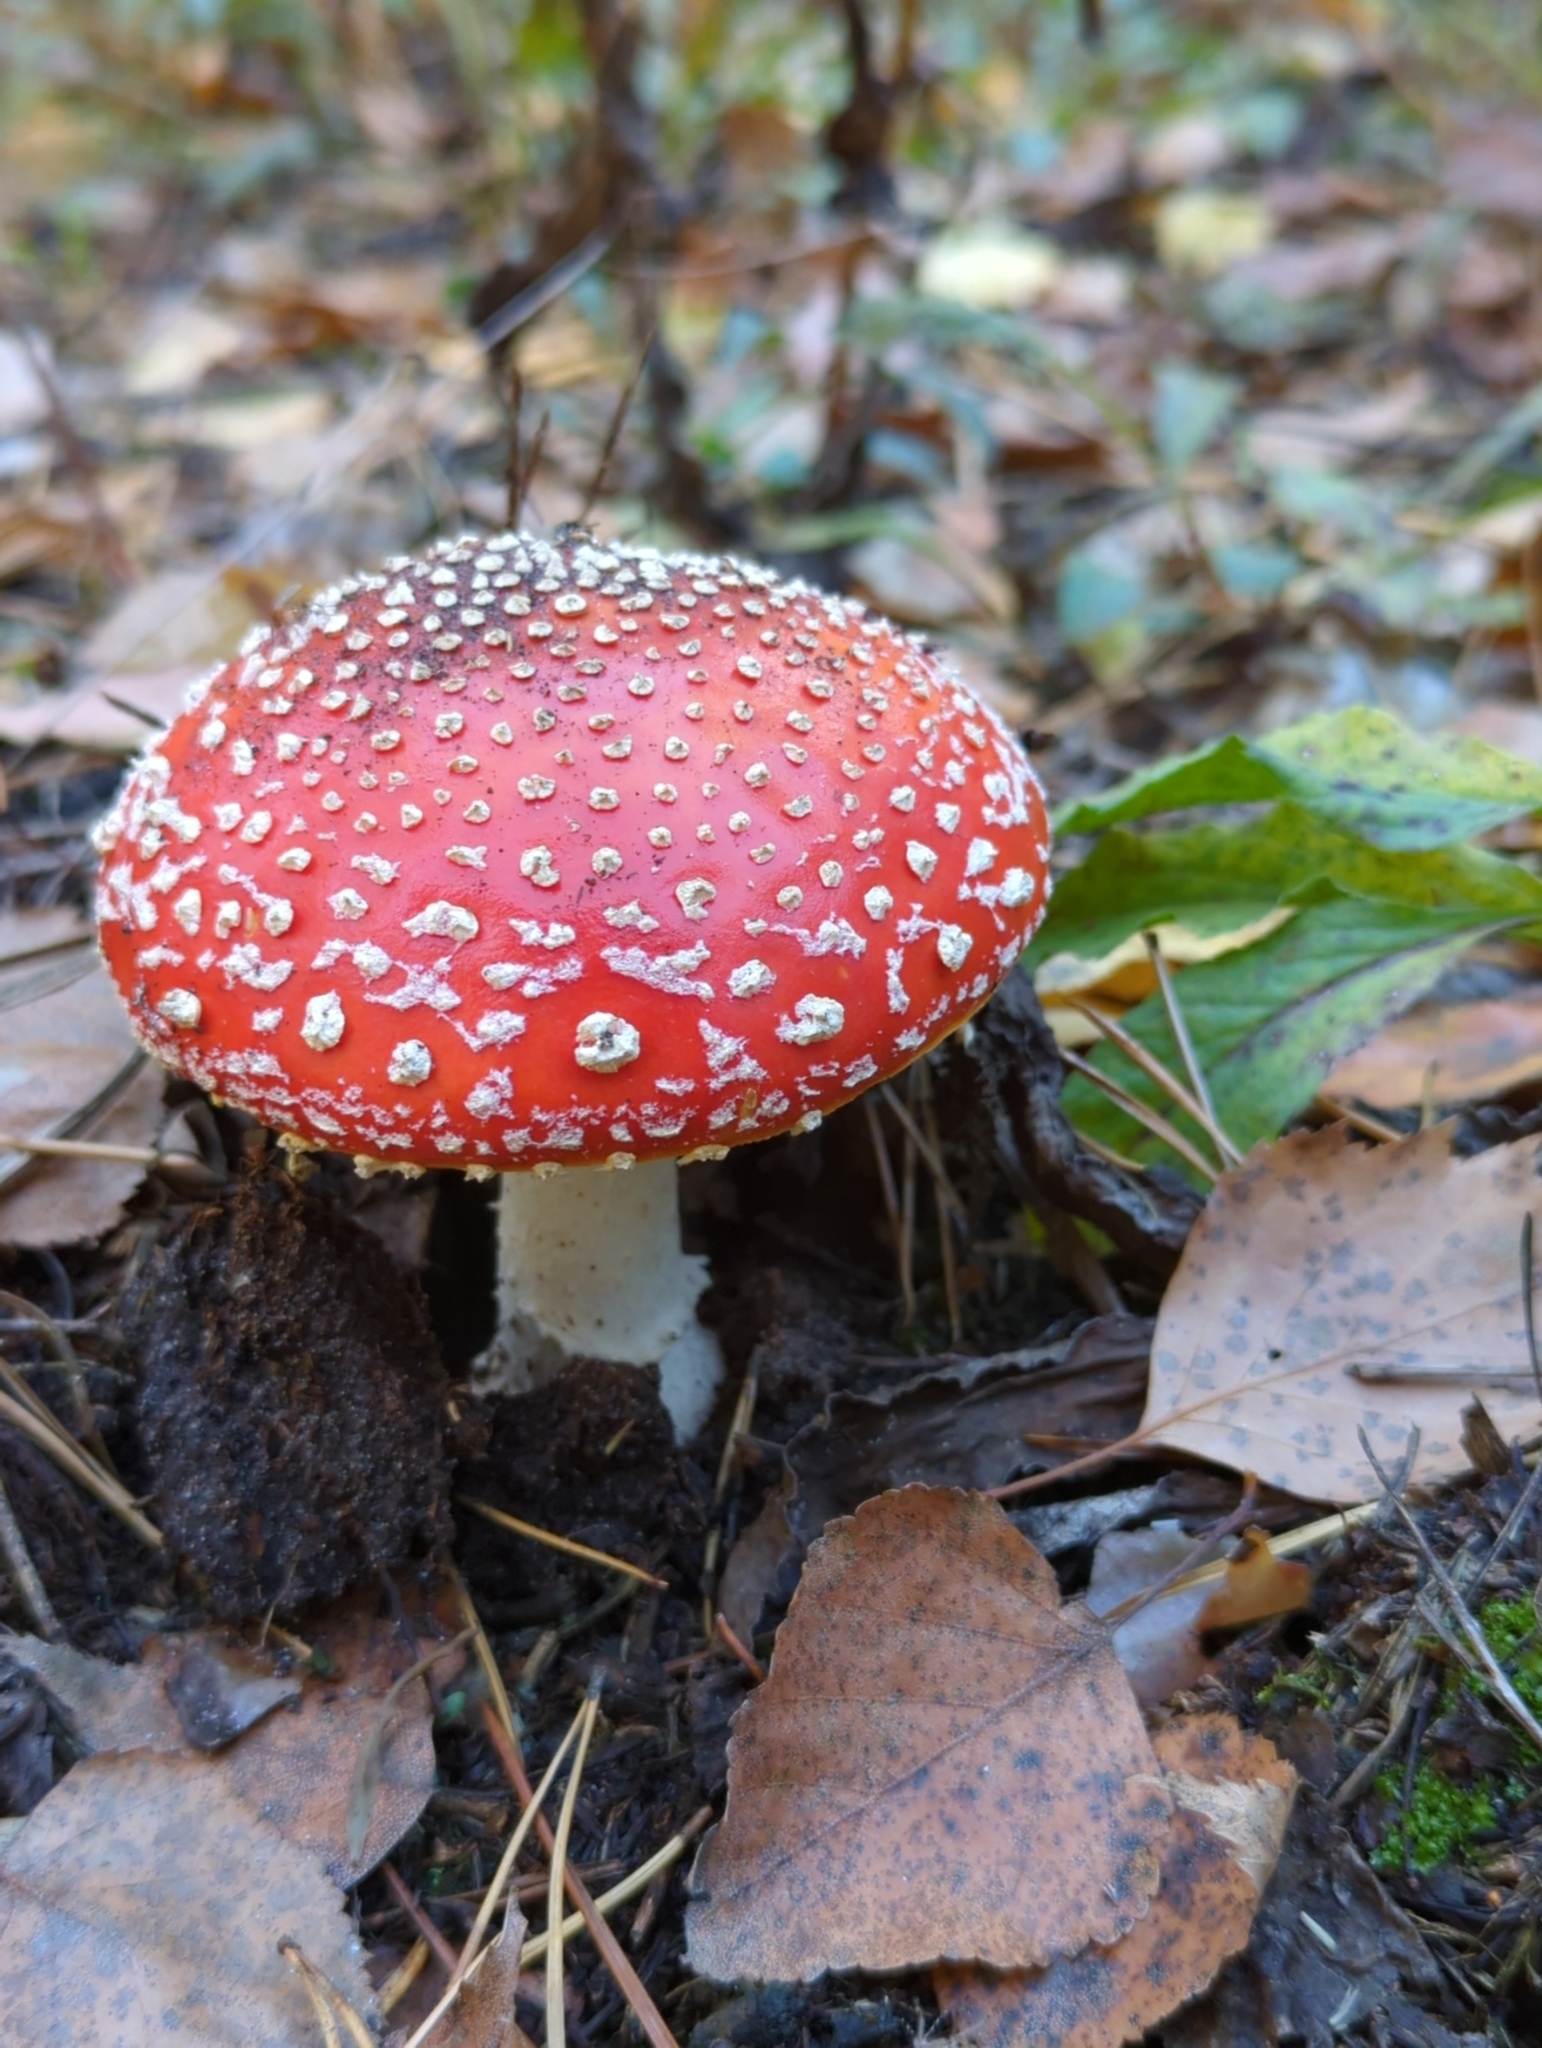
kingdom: Fungi
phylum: Basidiomycota
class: Agaricomycetes
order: Agaricales
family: Amanitaceae
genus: Amanita
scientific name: Amanita muscaria
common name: Fly agaric
